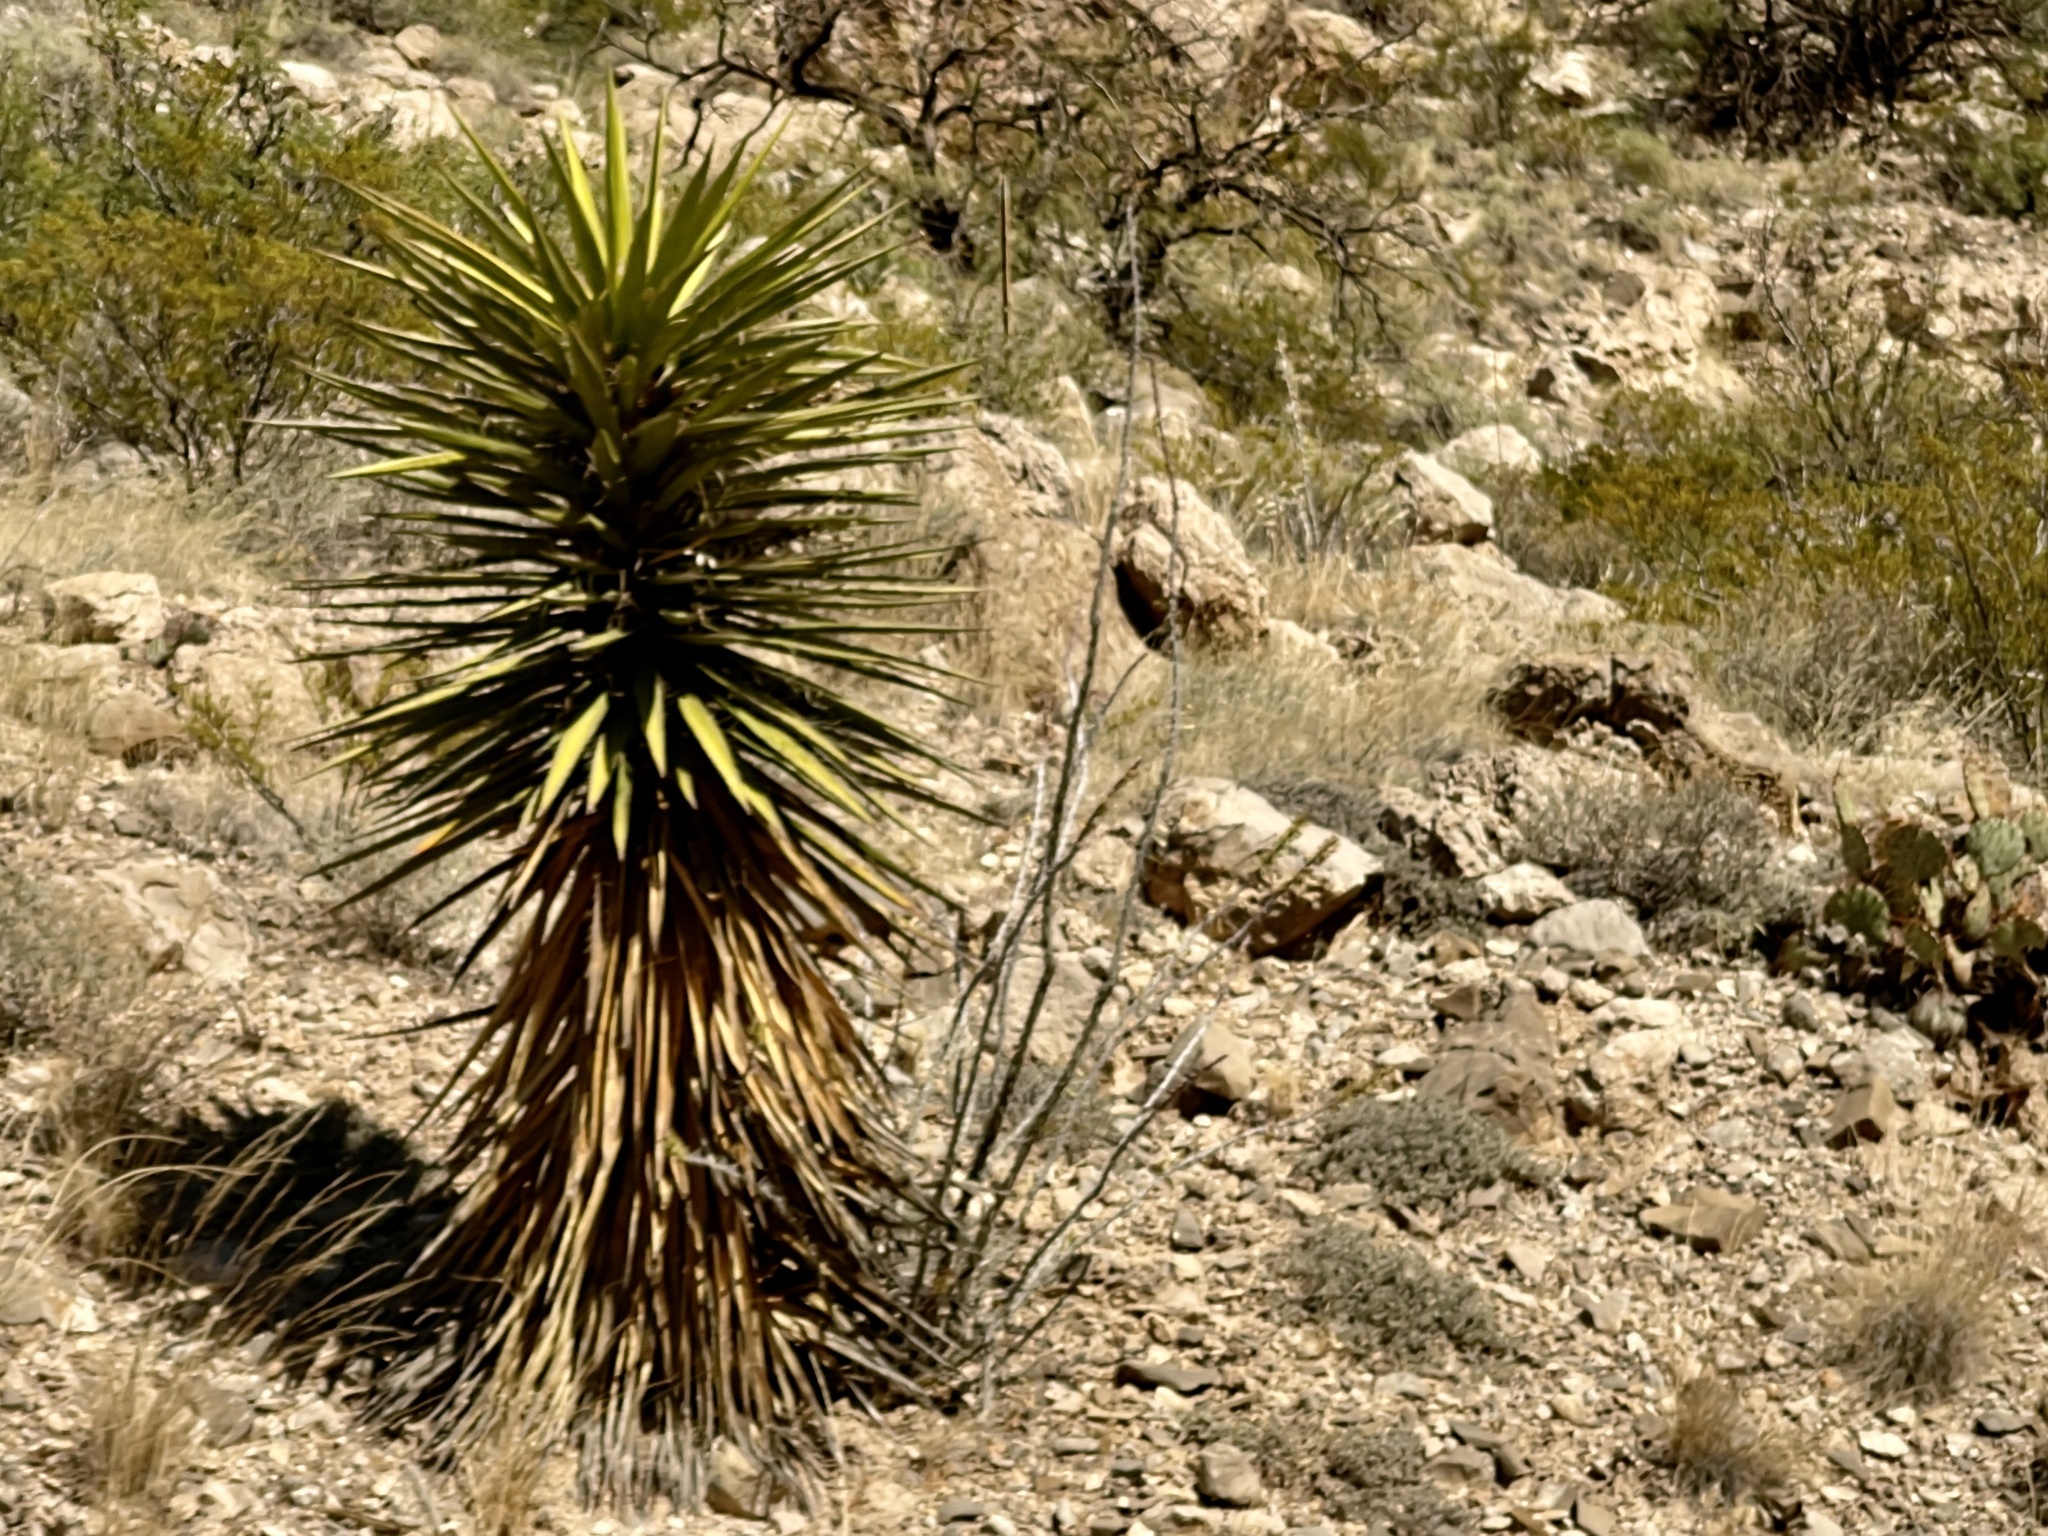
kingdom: Plantae
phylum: Tracheophyta
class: Liliopsida
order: Asparagales
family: Asparagaceae
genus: Yucca
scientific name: Yucca treculiana
